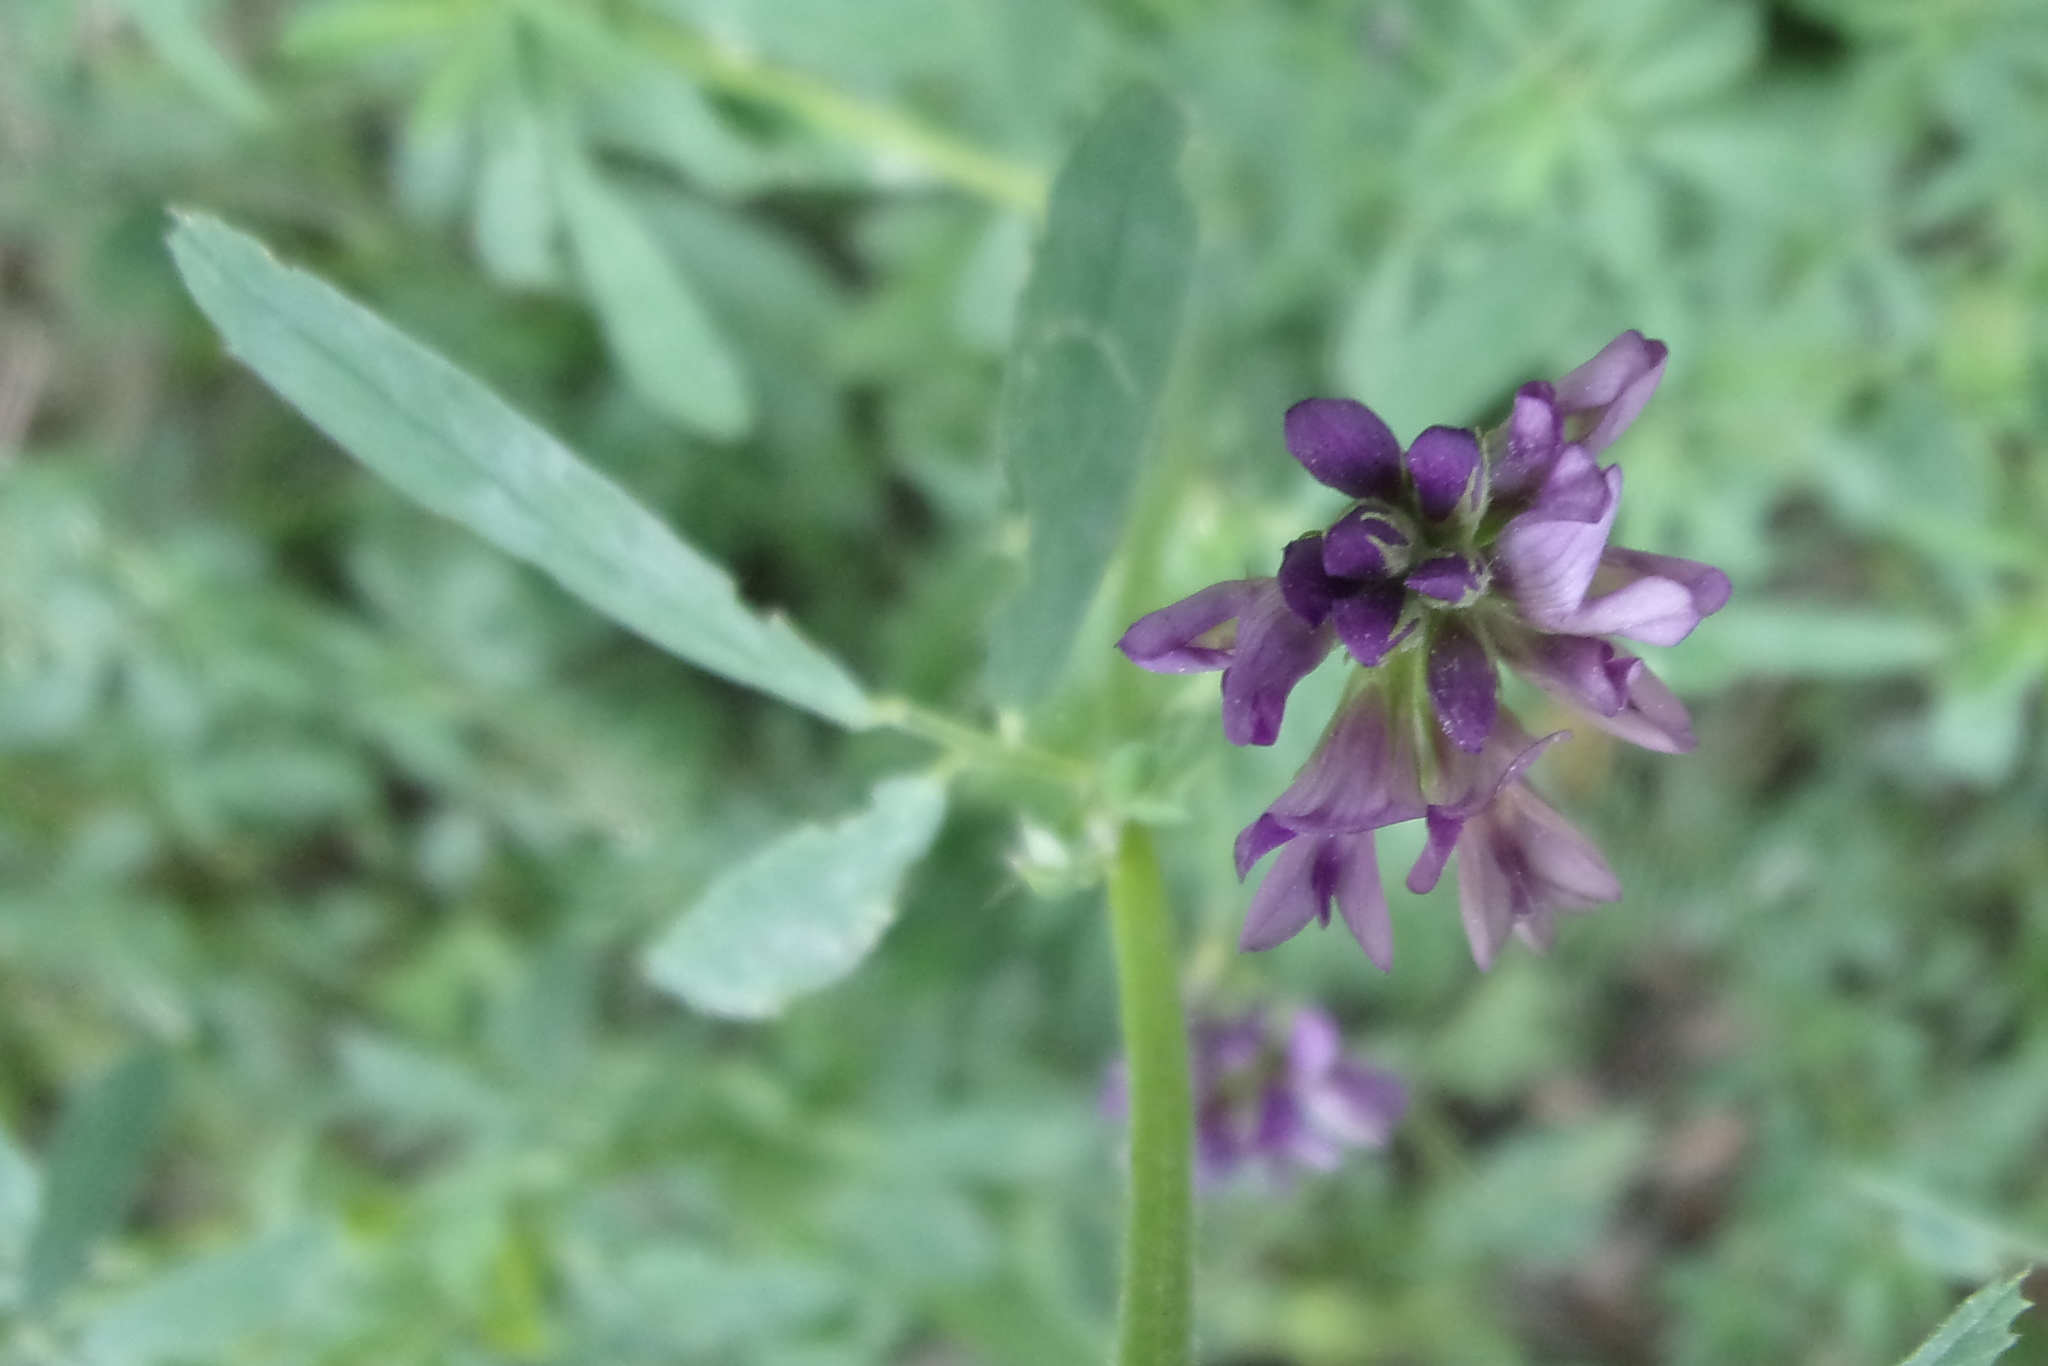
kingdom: Plantae
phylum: Tracheophyta
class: Magnoliopsida
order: Fabales
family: Fabaceae
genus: Medicago
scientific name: Medicago sativa
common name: Alfalfa
